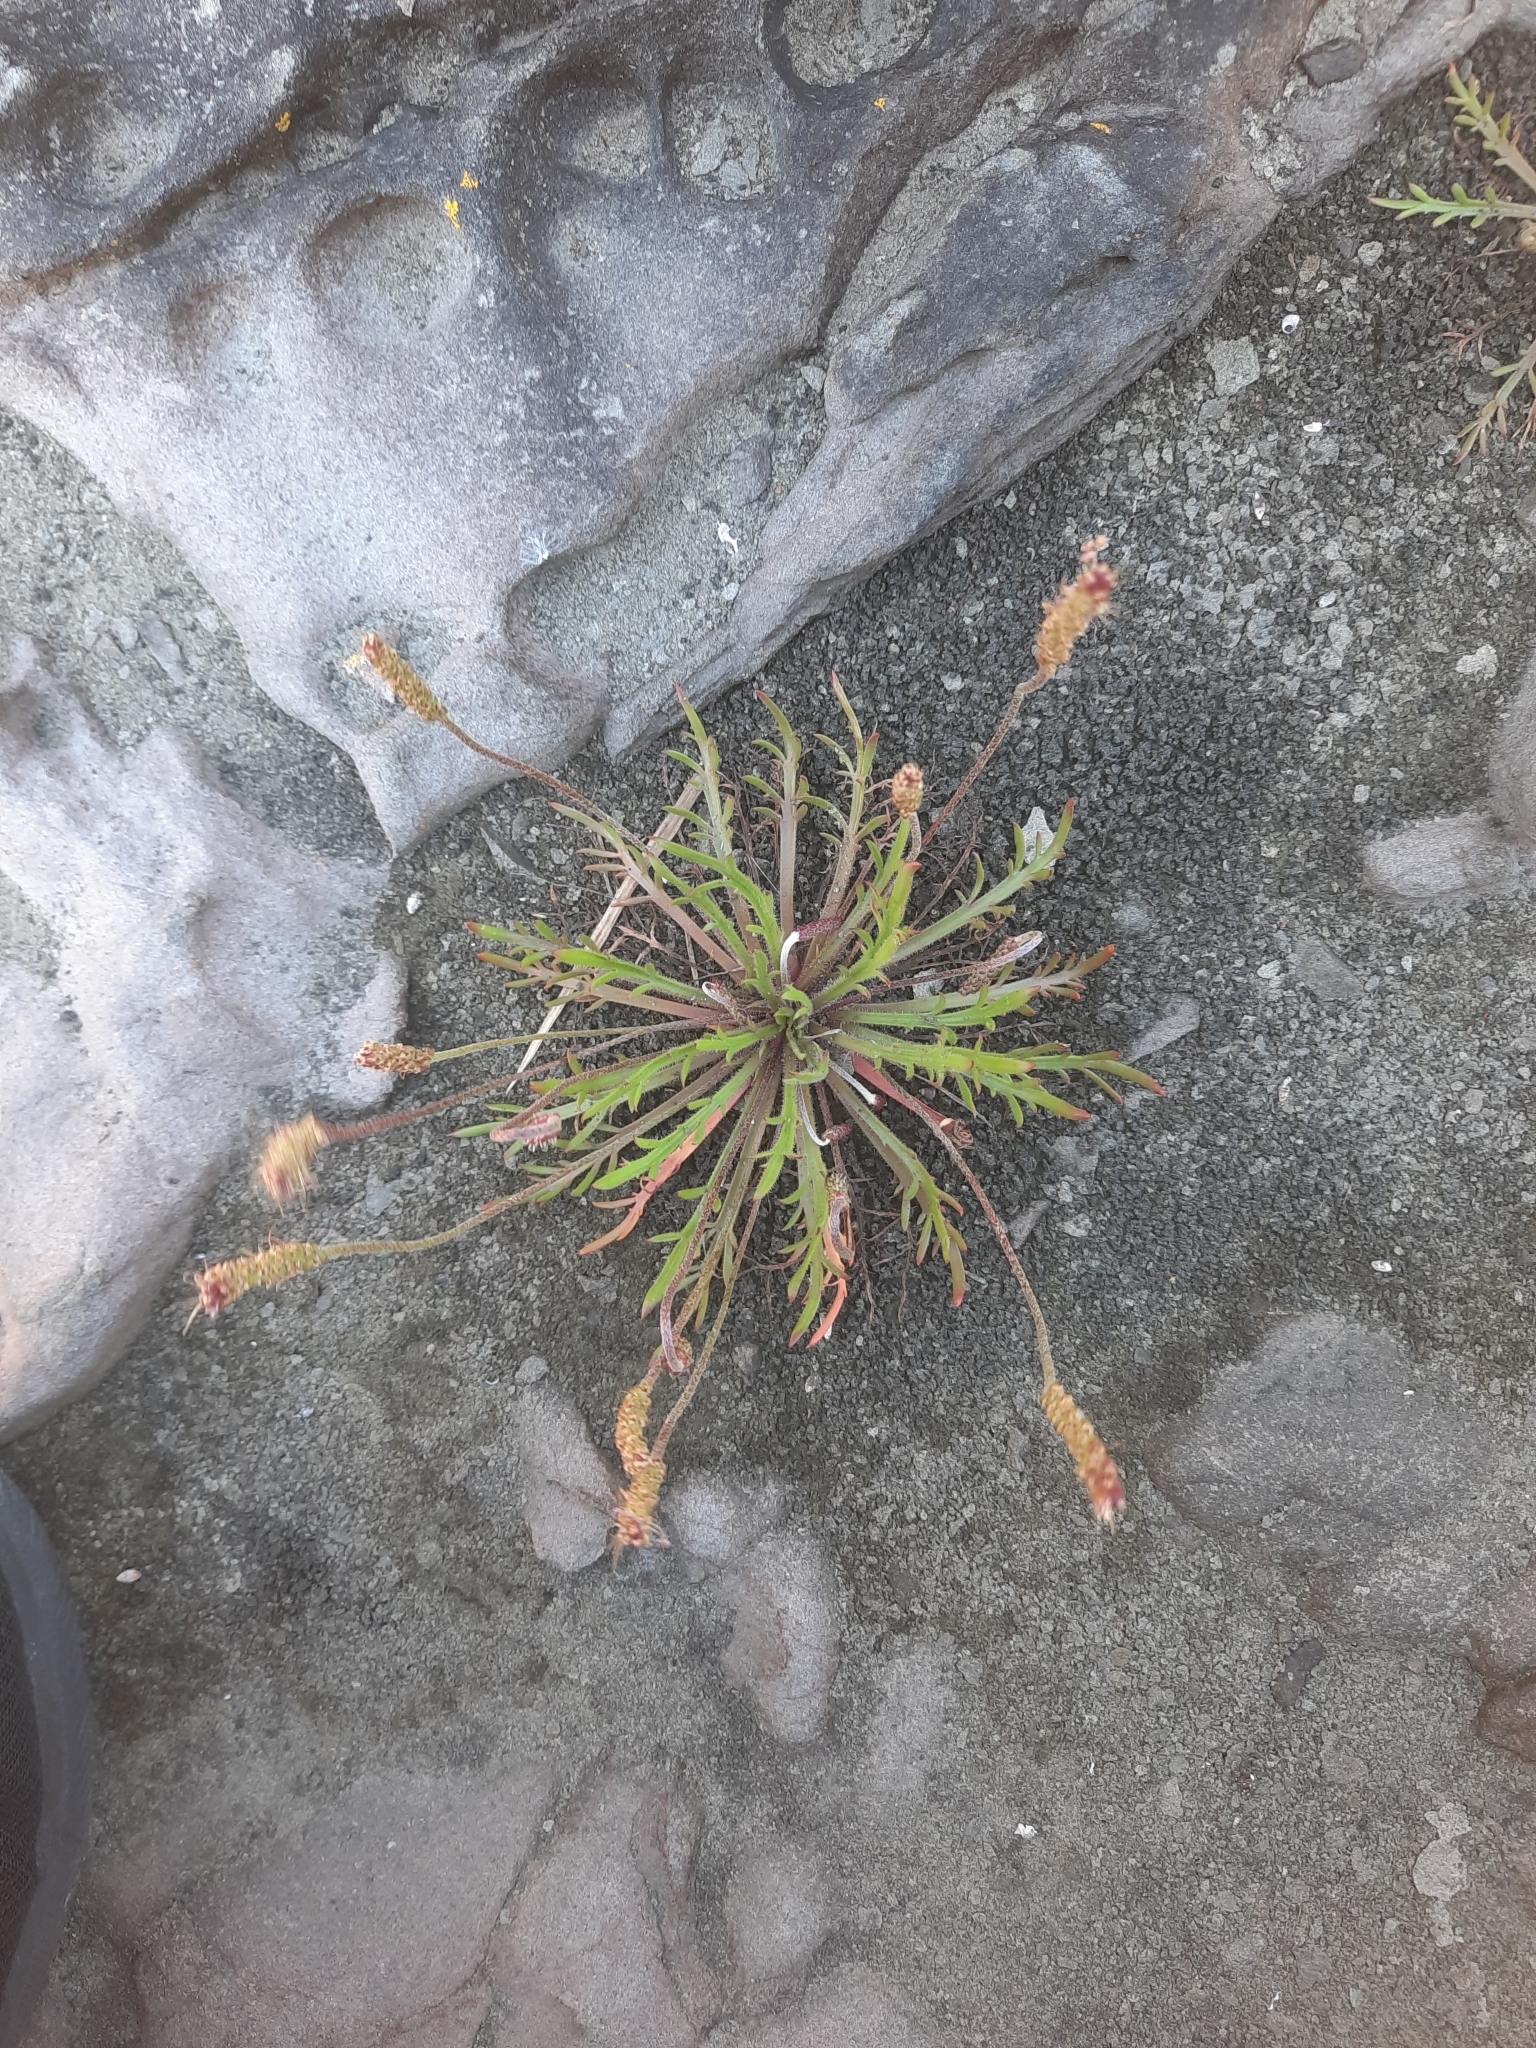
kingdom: Plantae
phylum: Tracheophyta
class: Magnoliopsida
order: Lamiales
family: Plantaginaceae
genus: Plantago
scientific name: Plantago coronopus
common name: Buck's-horn plantain
